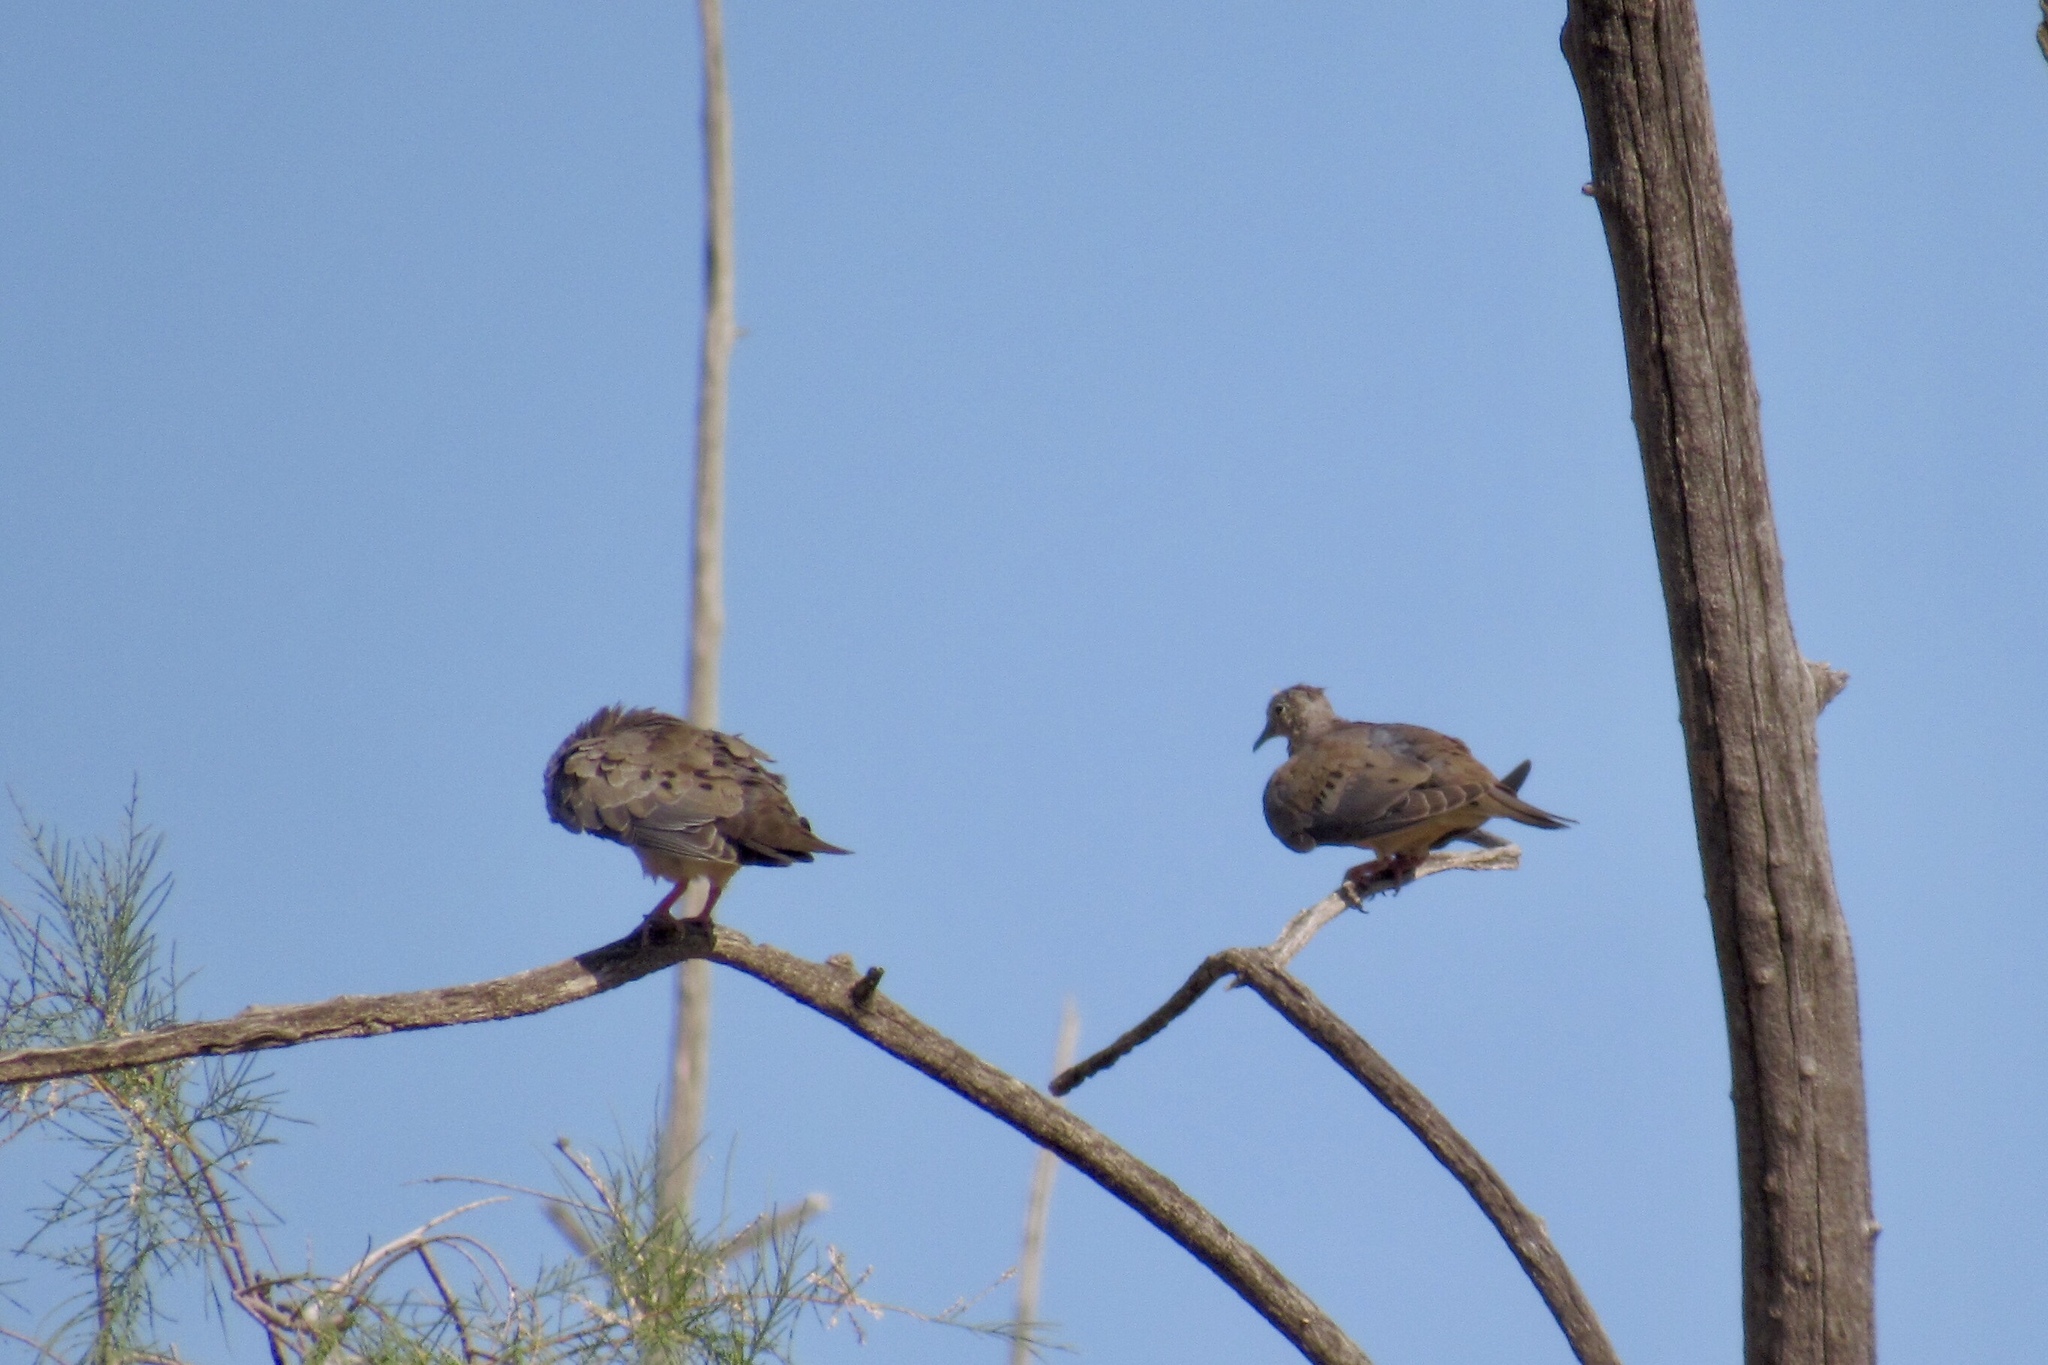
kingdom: Animalia
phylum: Chordata
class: Aves
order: Columbiformes
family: Columbidae
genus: Zenaida
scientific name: Zenaida macroura
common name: Mourning dove
